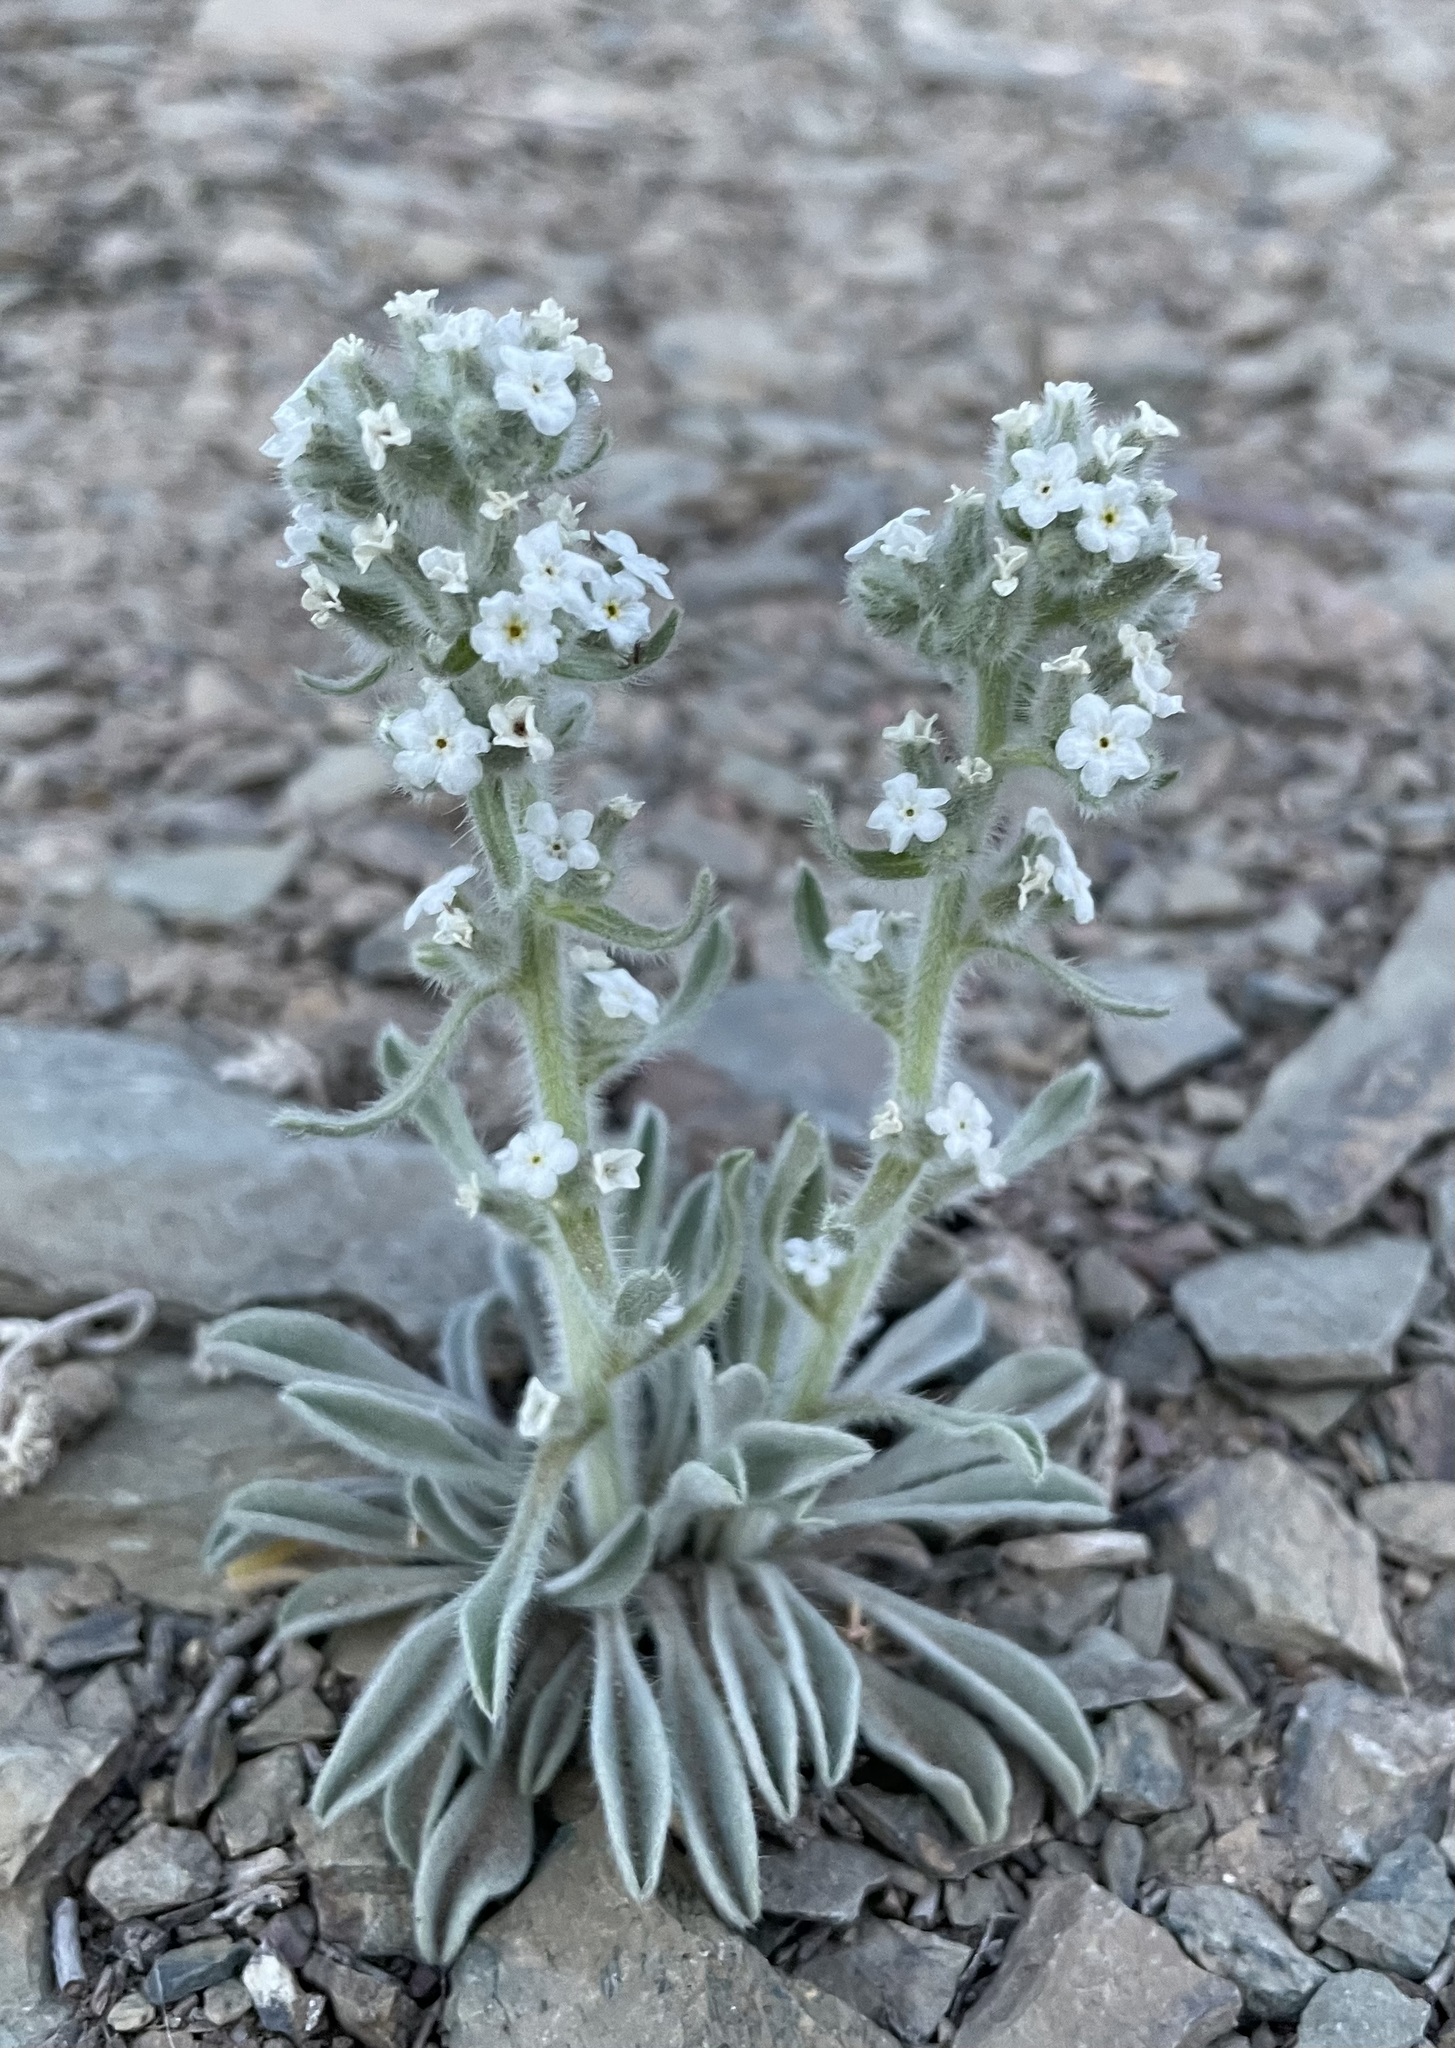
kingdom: Plantae
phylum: Tracheophyta
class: Magnoliopsida
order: Boraginales
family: Boraginaceae
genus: Oreocarya
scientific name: Oreocarya hoffmannii
